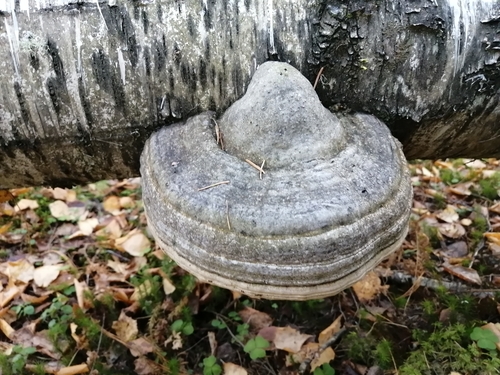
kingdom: Fungi
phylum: Basidiomycota
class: Agaricomycetes
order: Polyporales
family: Polyporaceae
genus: Fomes
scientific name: Fomes fomentarius
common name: Hoof fungus
